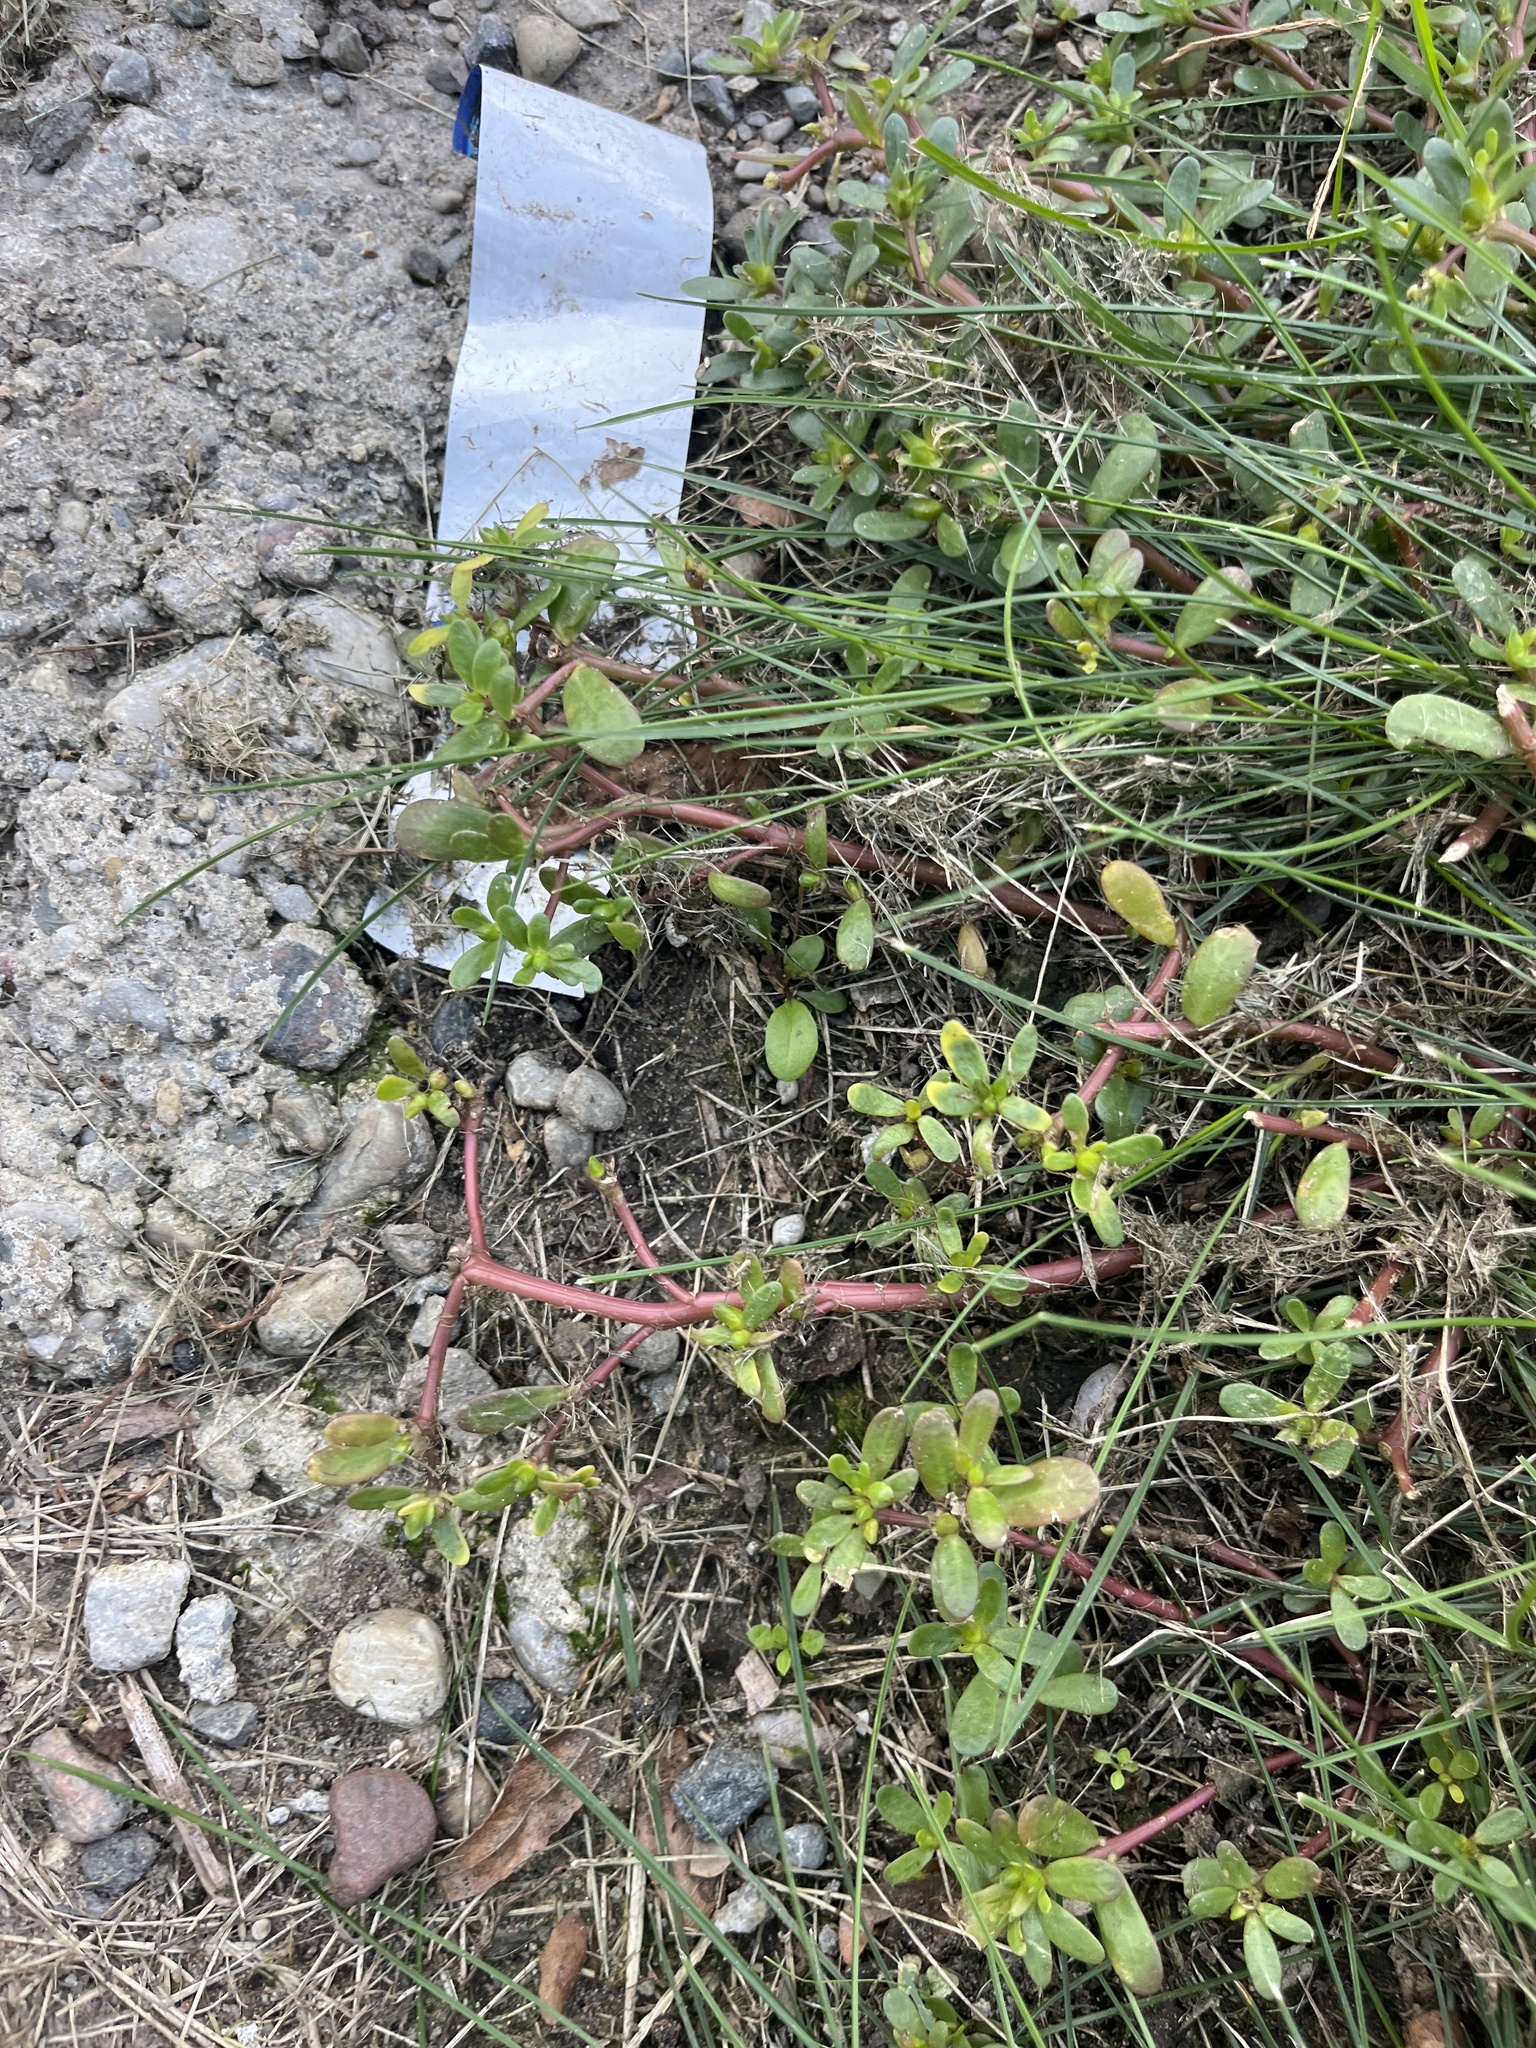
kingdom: Plantae
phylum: Tracheophyta
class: Magnoliopsida
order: Caryophyllales
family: Portulacaceae
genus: Portulaca
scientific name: Portulaca oleracea
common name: Common purslane
